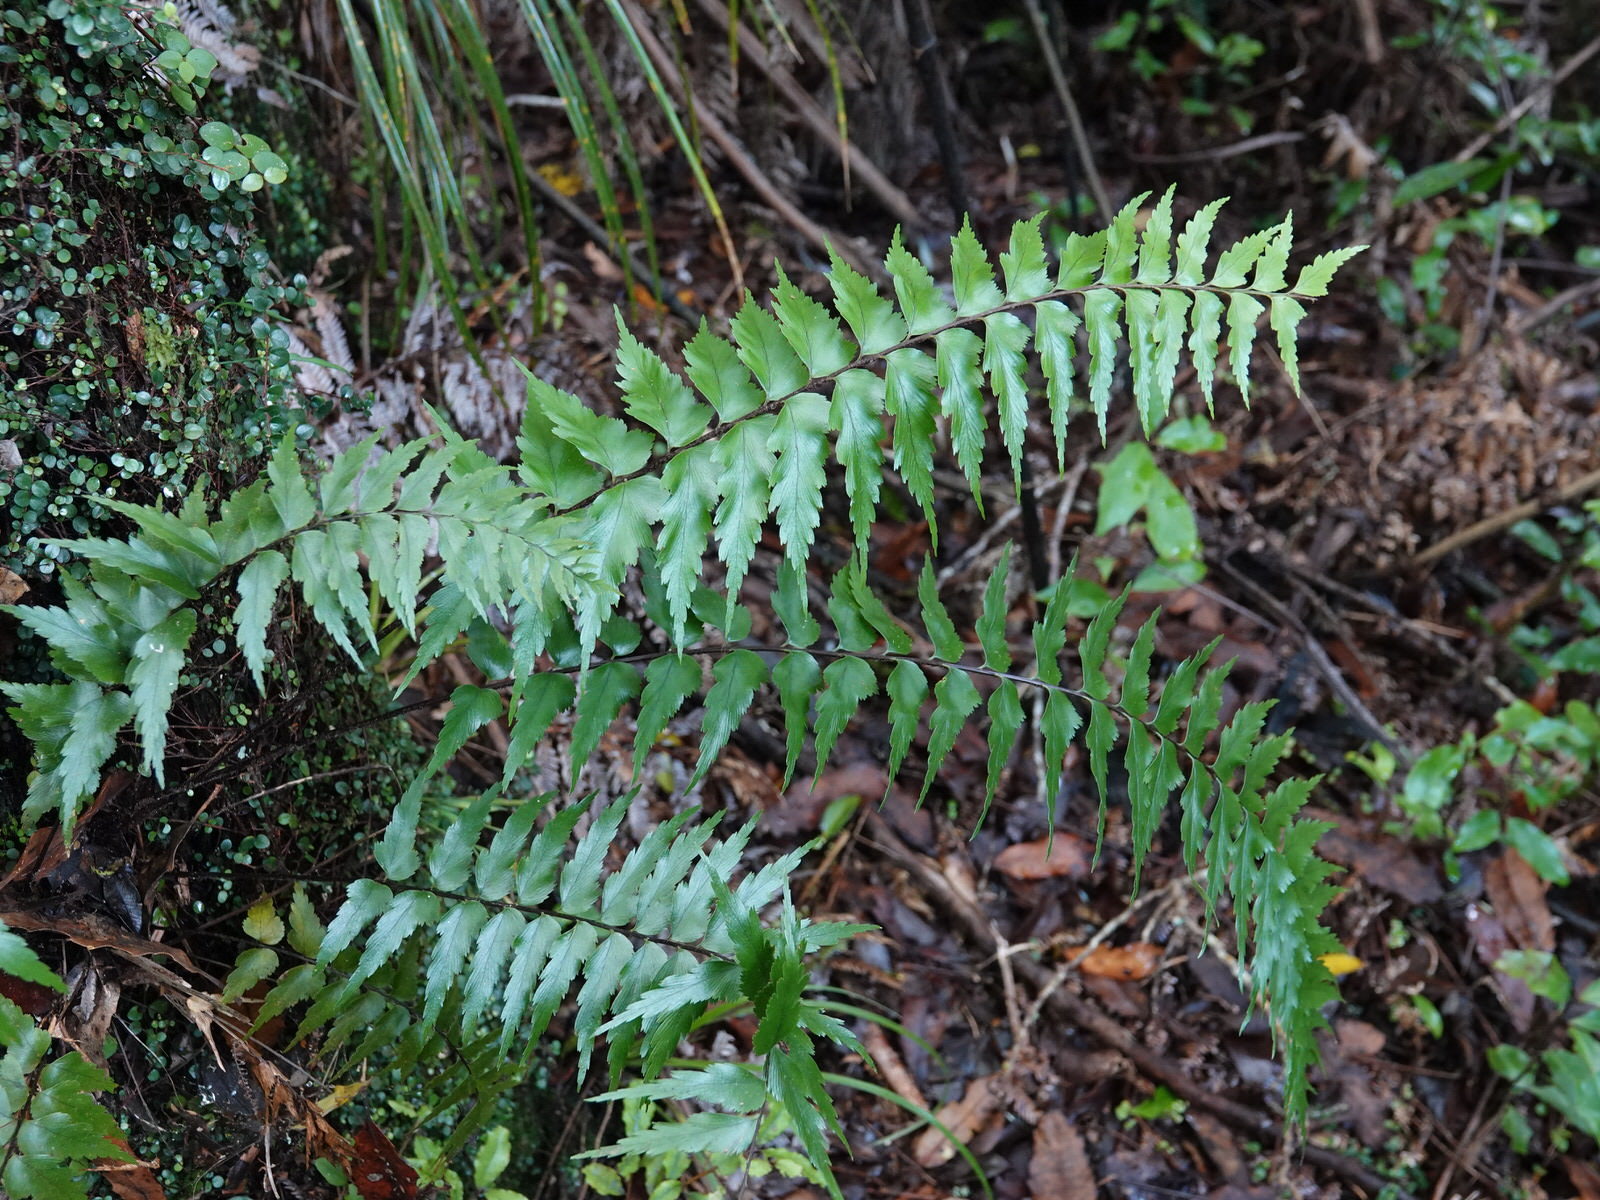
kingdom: Plantae
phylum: Tracheophyta
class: Polypodiopsida
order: Polypodiales
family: Aspleniaceae
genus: Asplenium
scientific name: Asplenium polyodon
